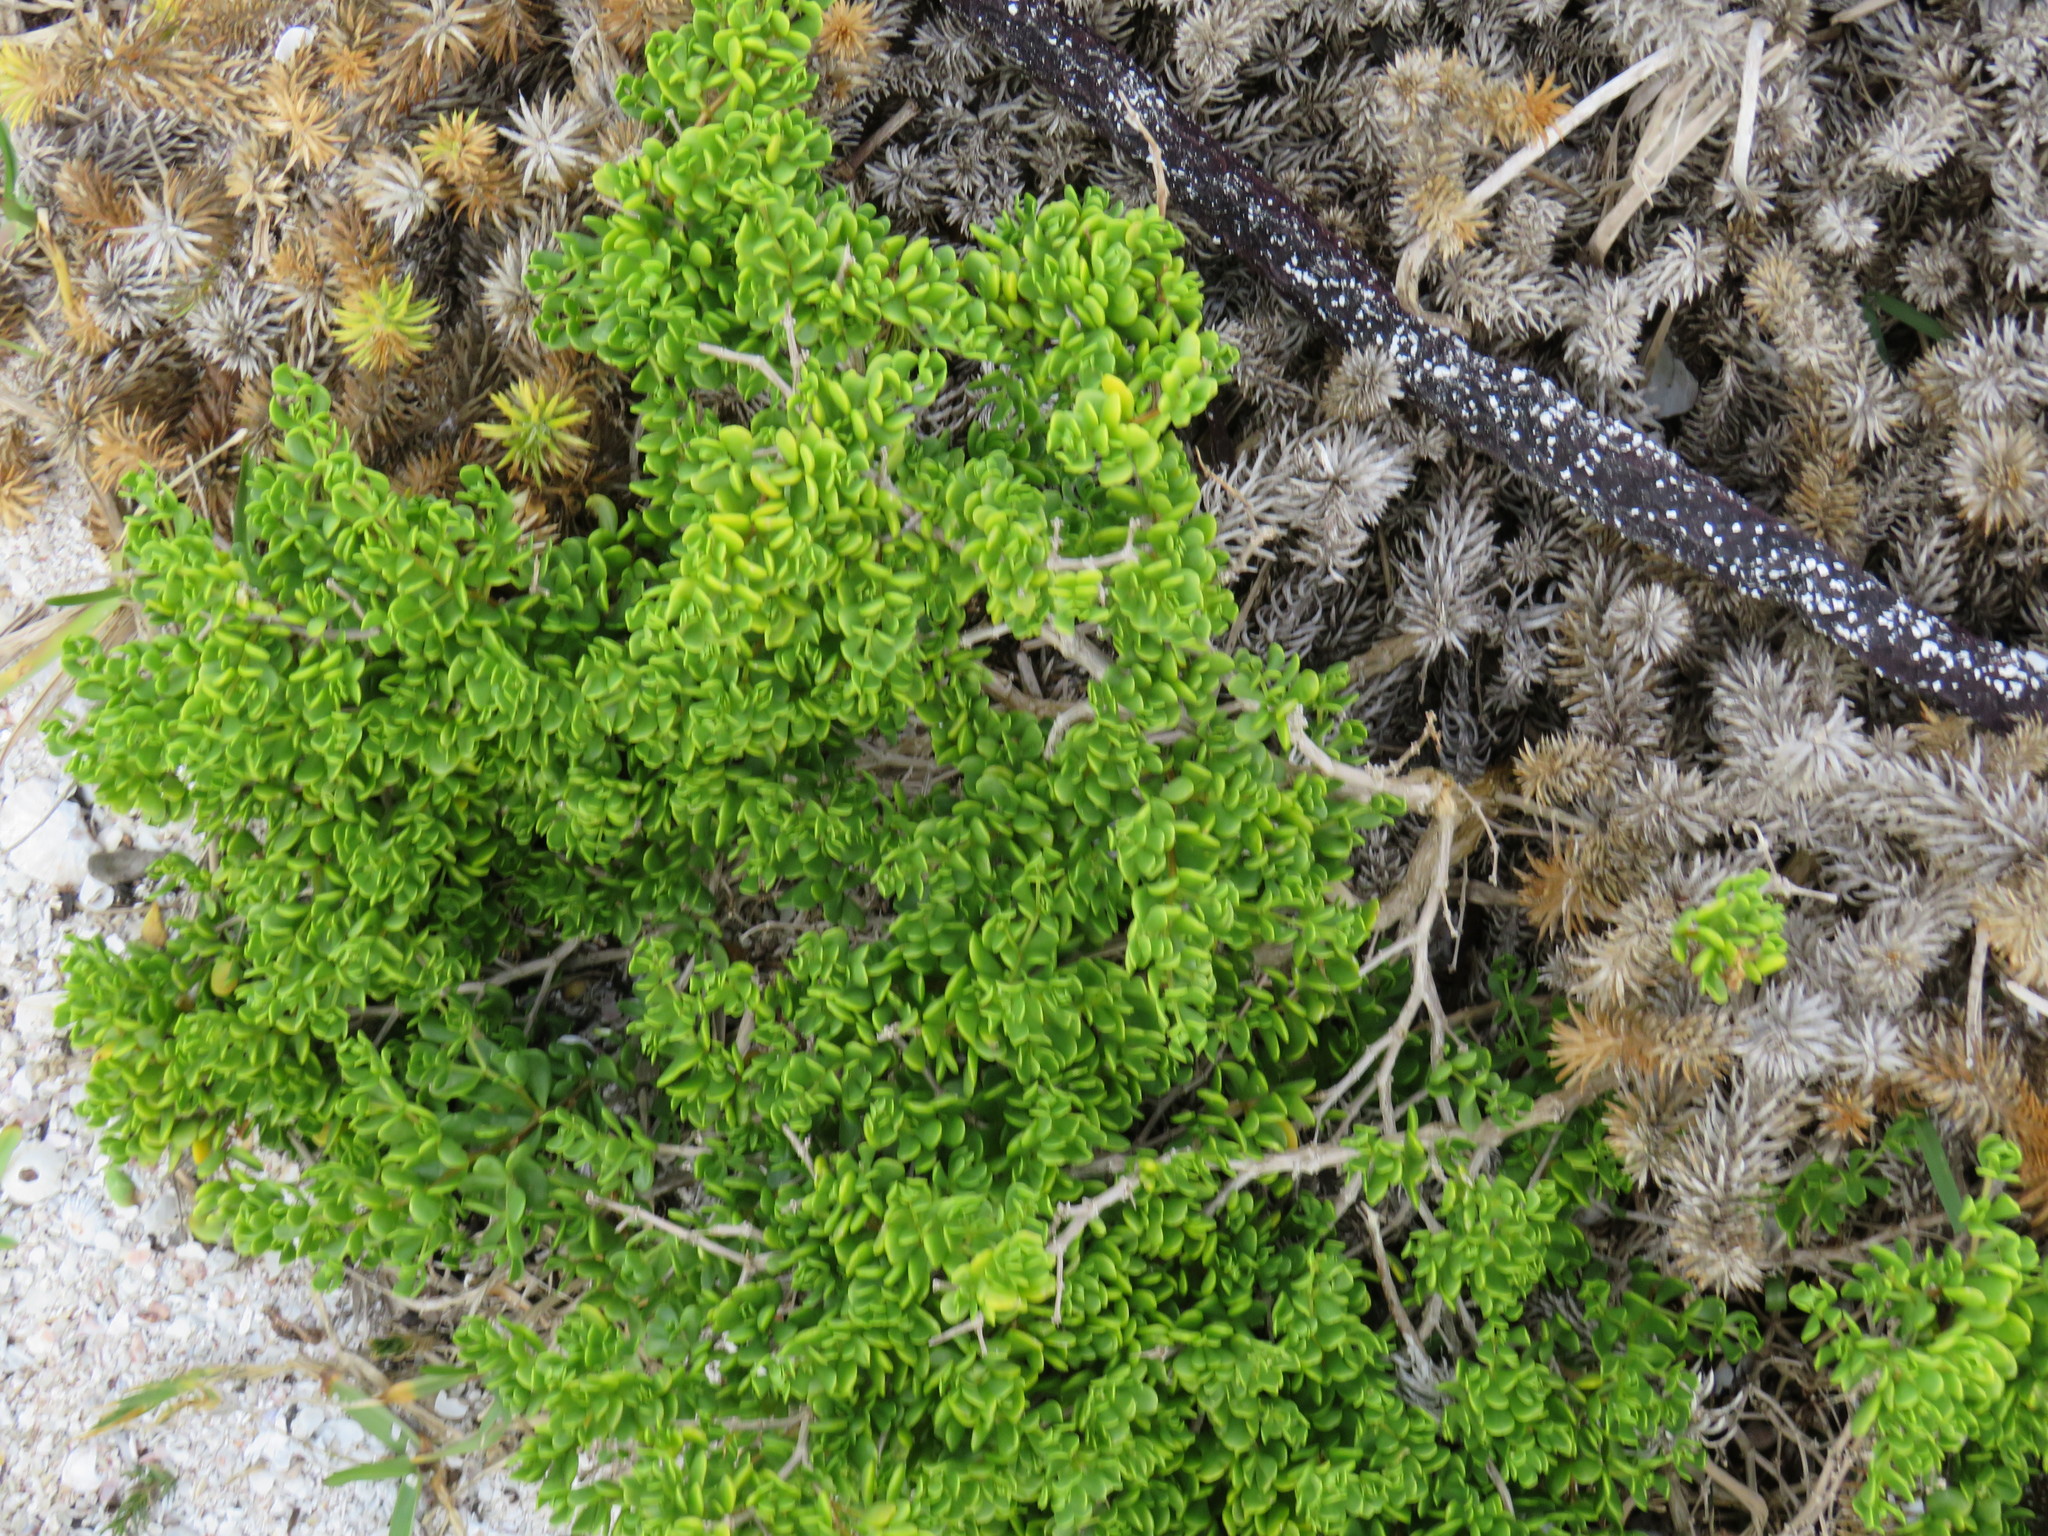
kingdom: Plantae
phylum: Tracheophyta
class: Magnoliopsida
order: Zygophyllales
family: Zygophyllaceae
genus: Roepera
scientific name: Roepera spinosa
